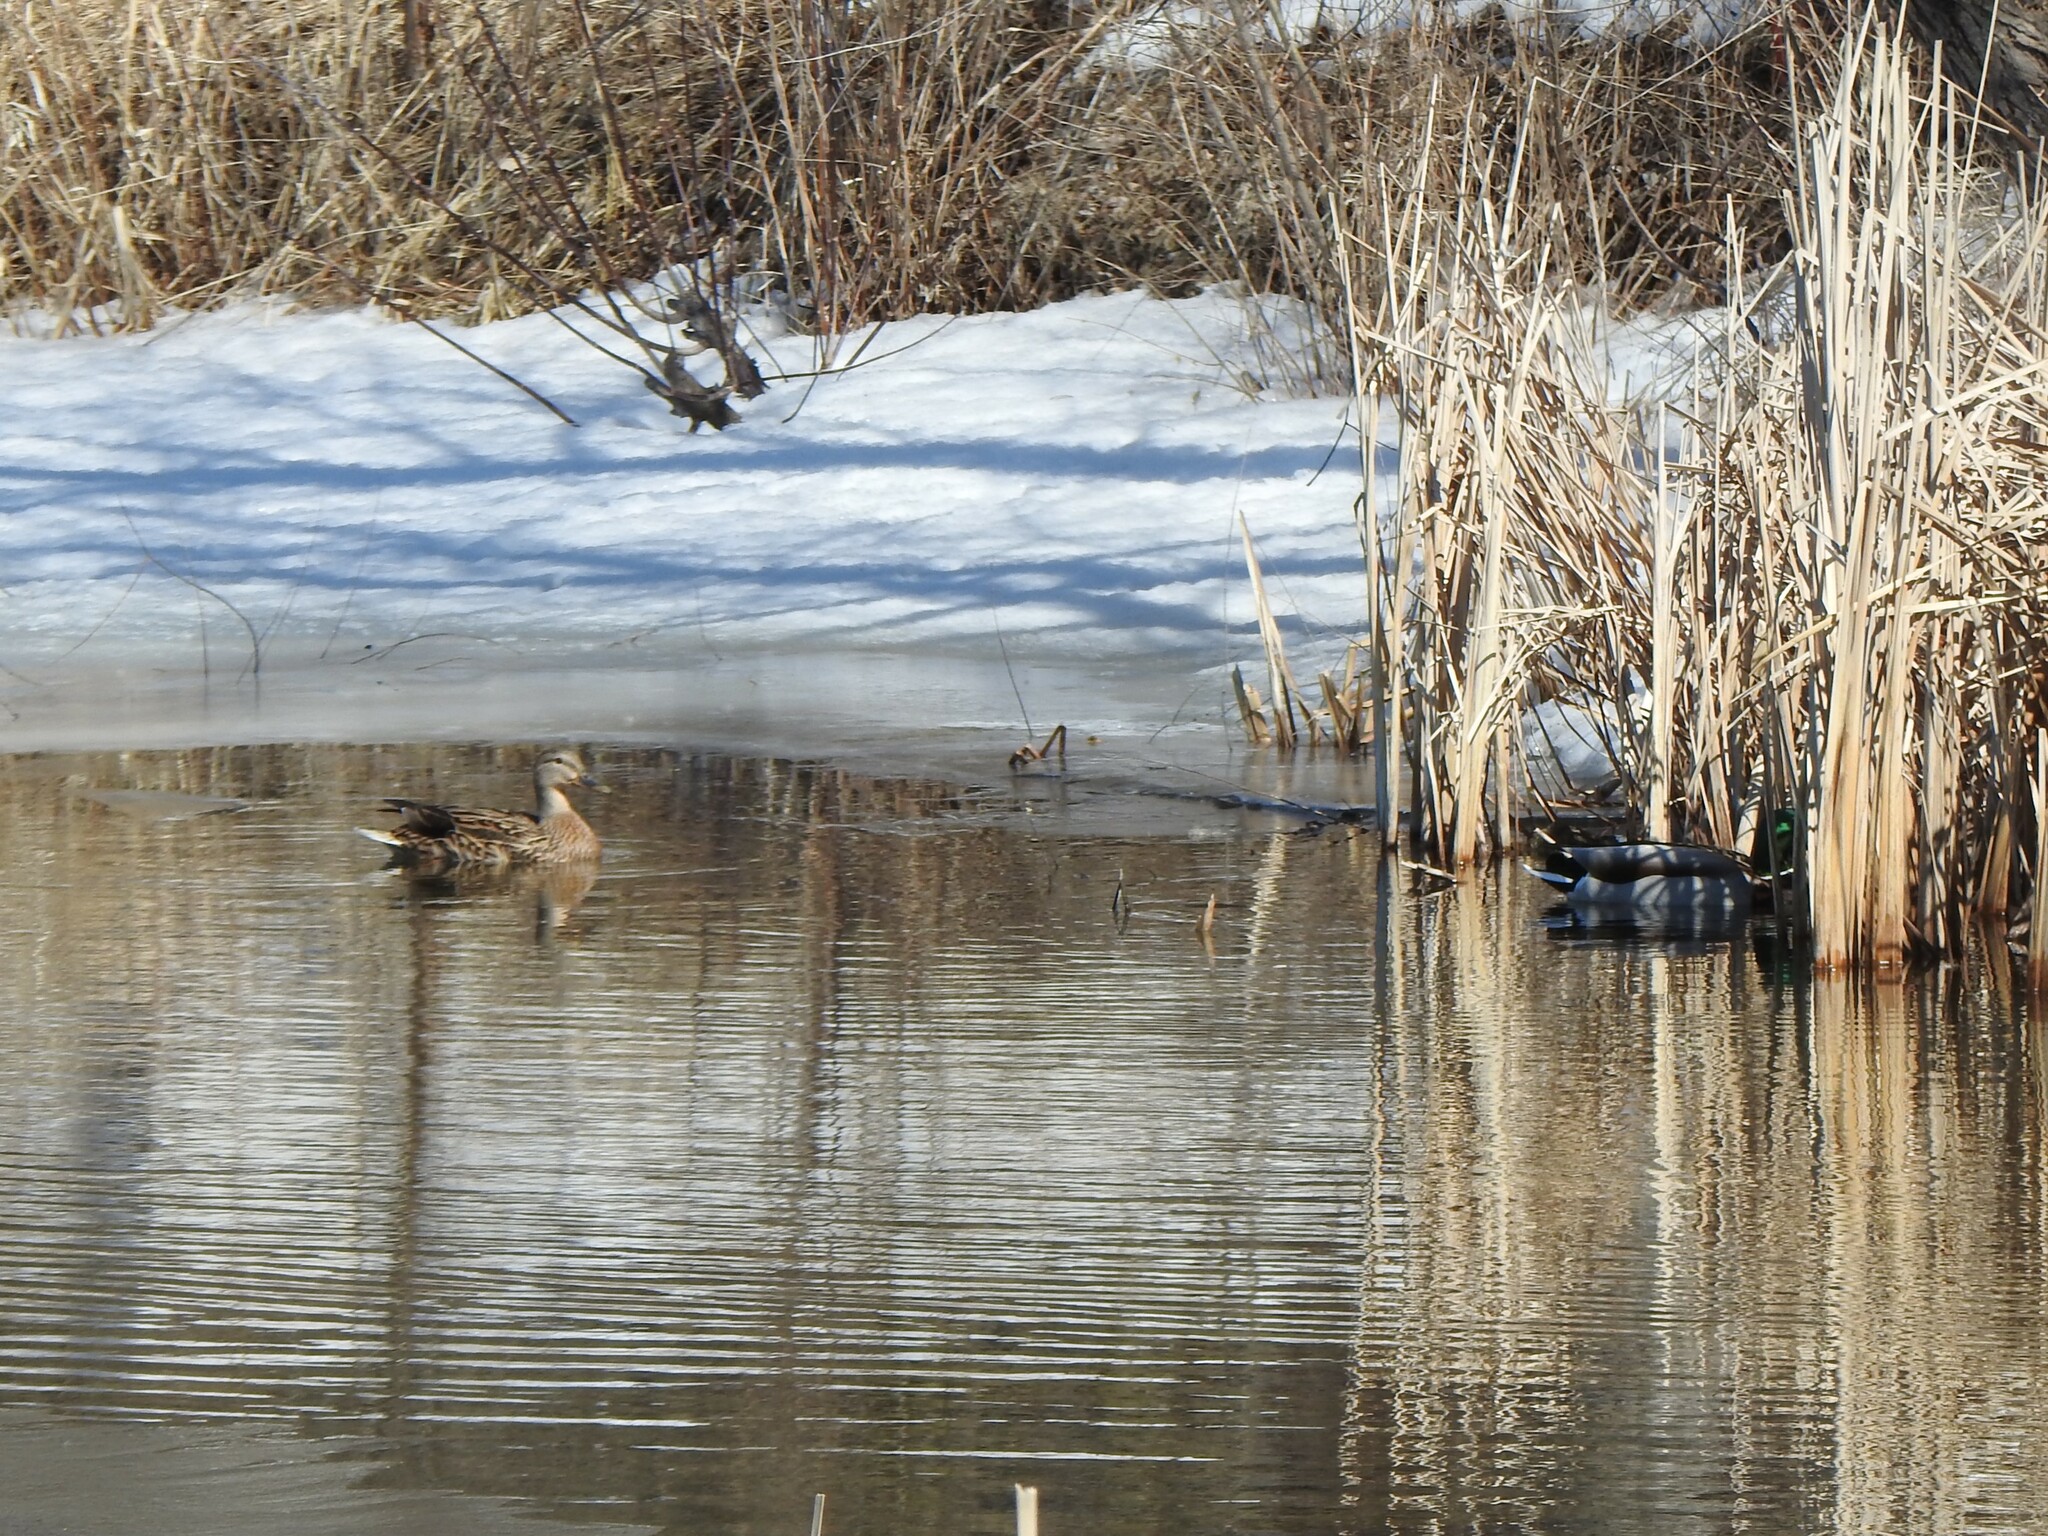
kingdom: Animalia
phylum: Chordata
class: Aves
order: Anseriformes
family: Anatidae
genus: Anas
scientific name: Anas platyrhynchos
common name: Mallard
